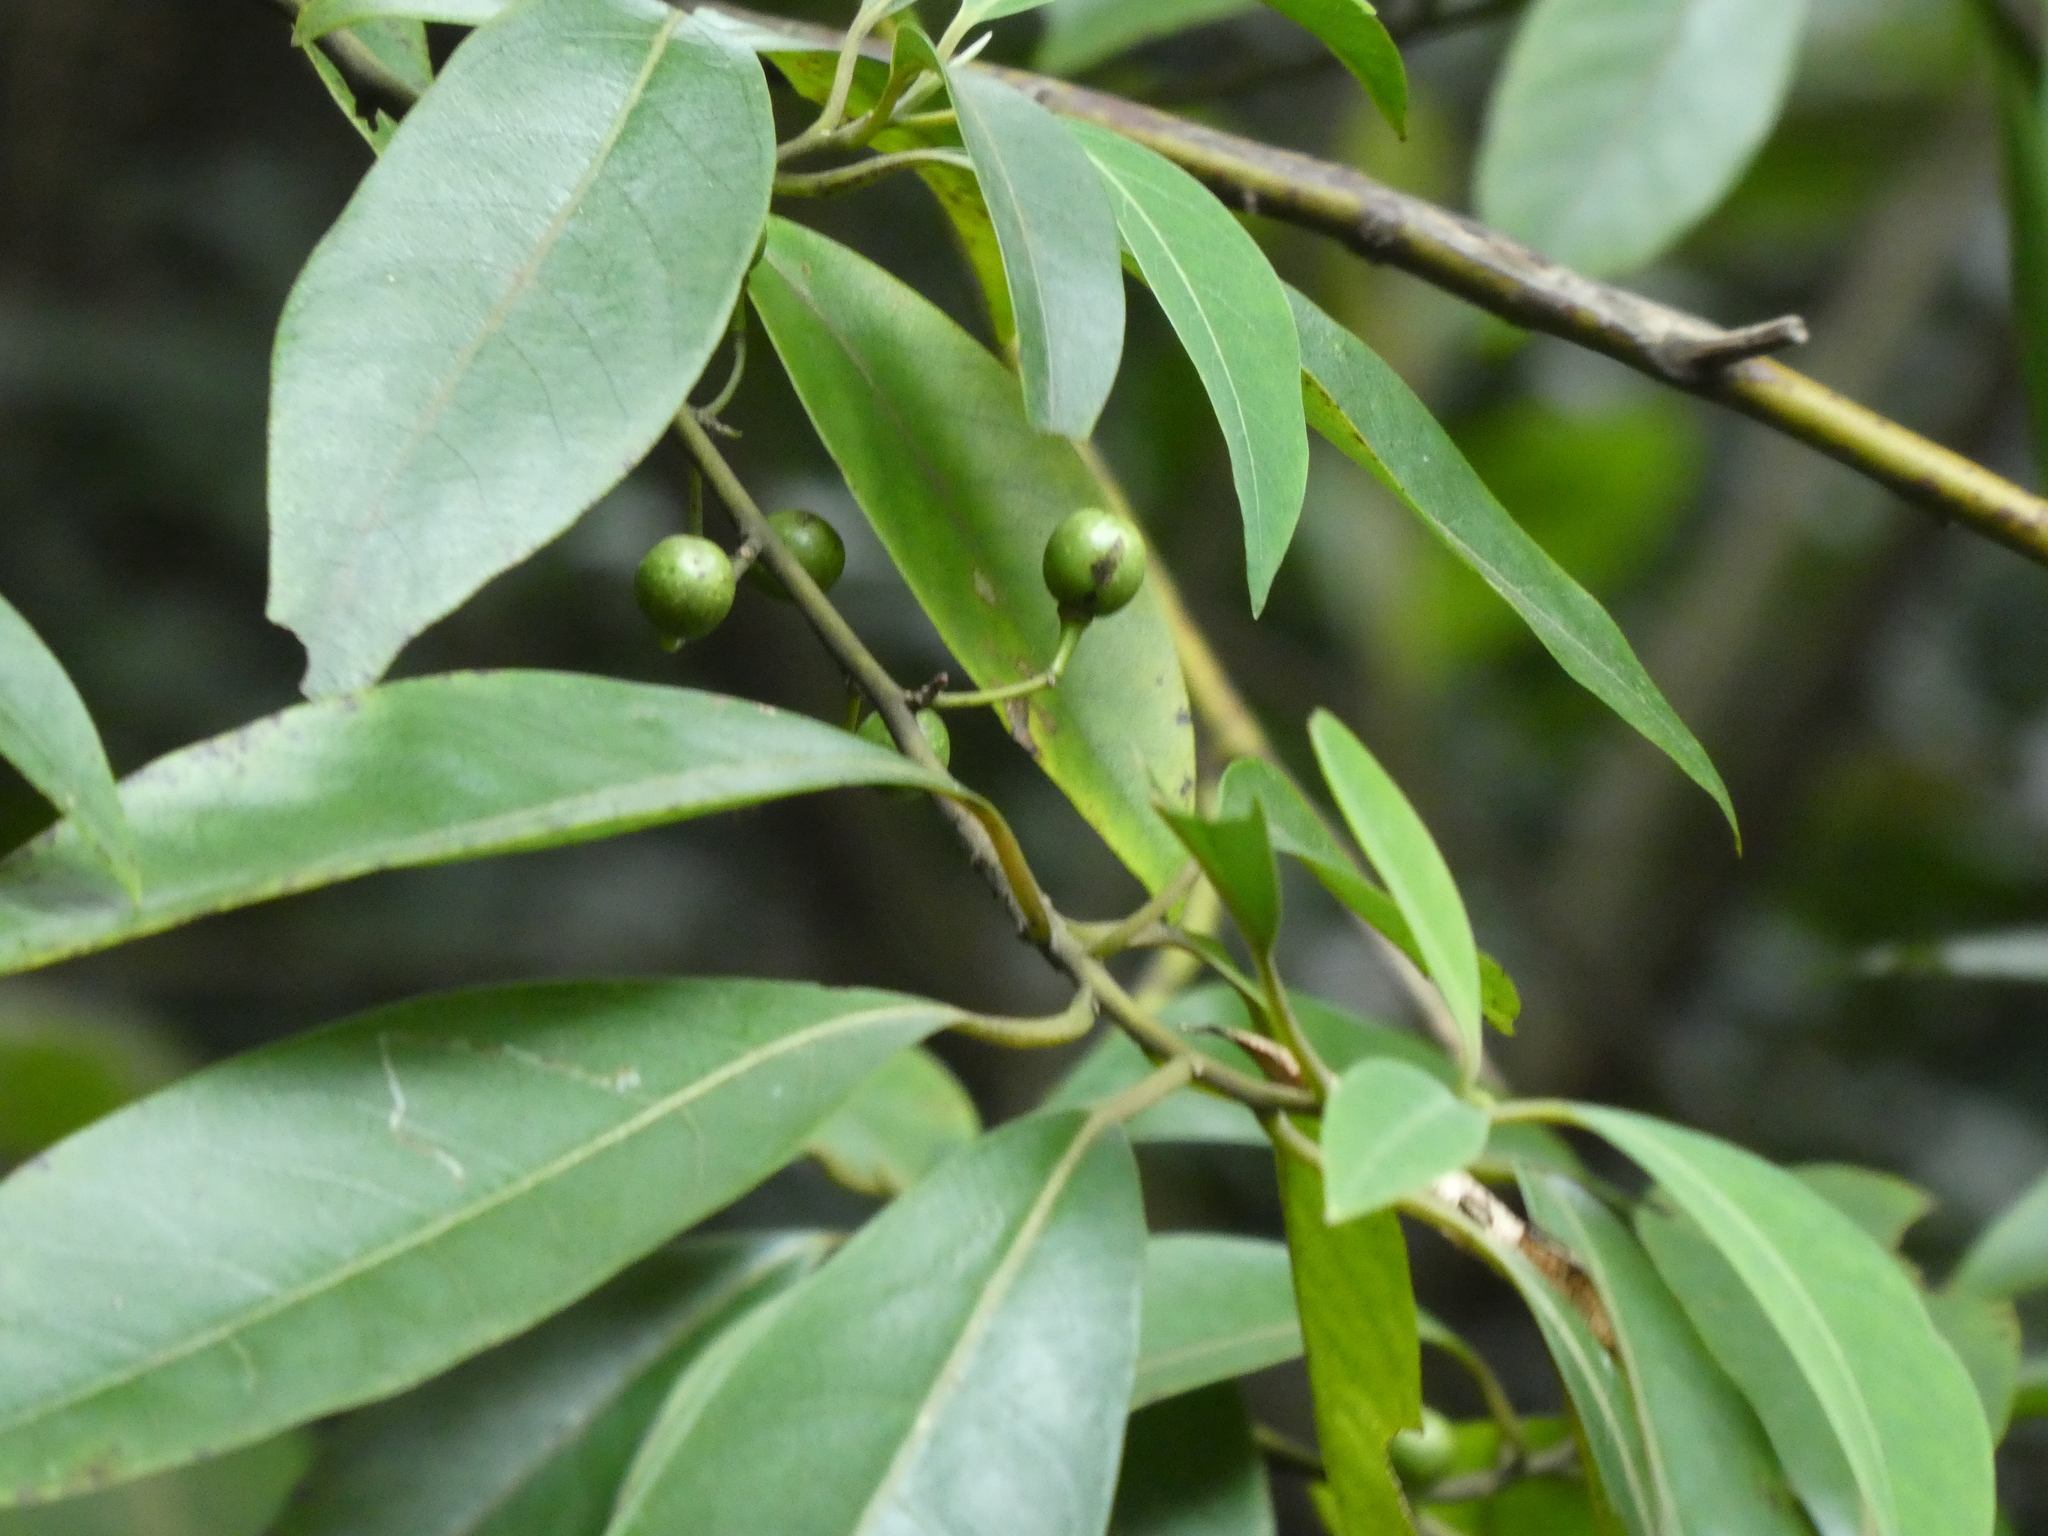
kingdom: Plantae
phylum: Tracheophyta
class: Magnoliopsida
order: Laurales
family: Lauraceae
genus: Litsea
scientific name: Litsea cubeba
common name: Mountain-pepper
